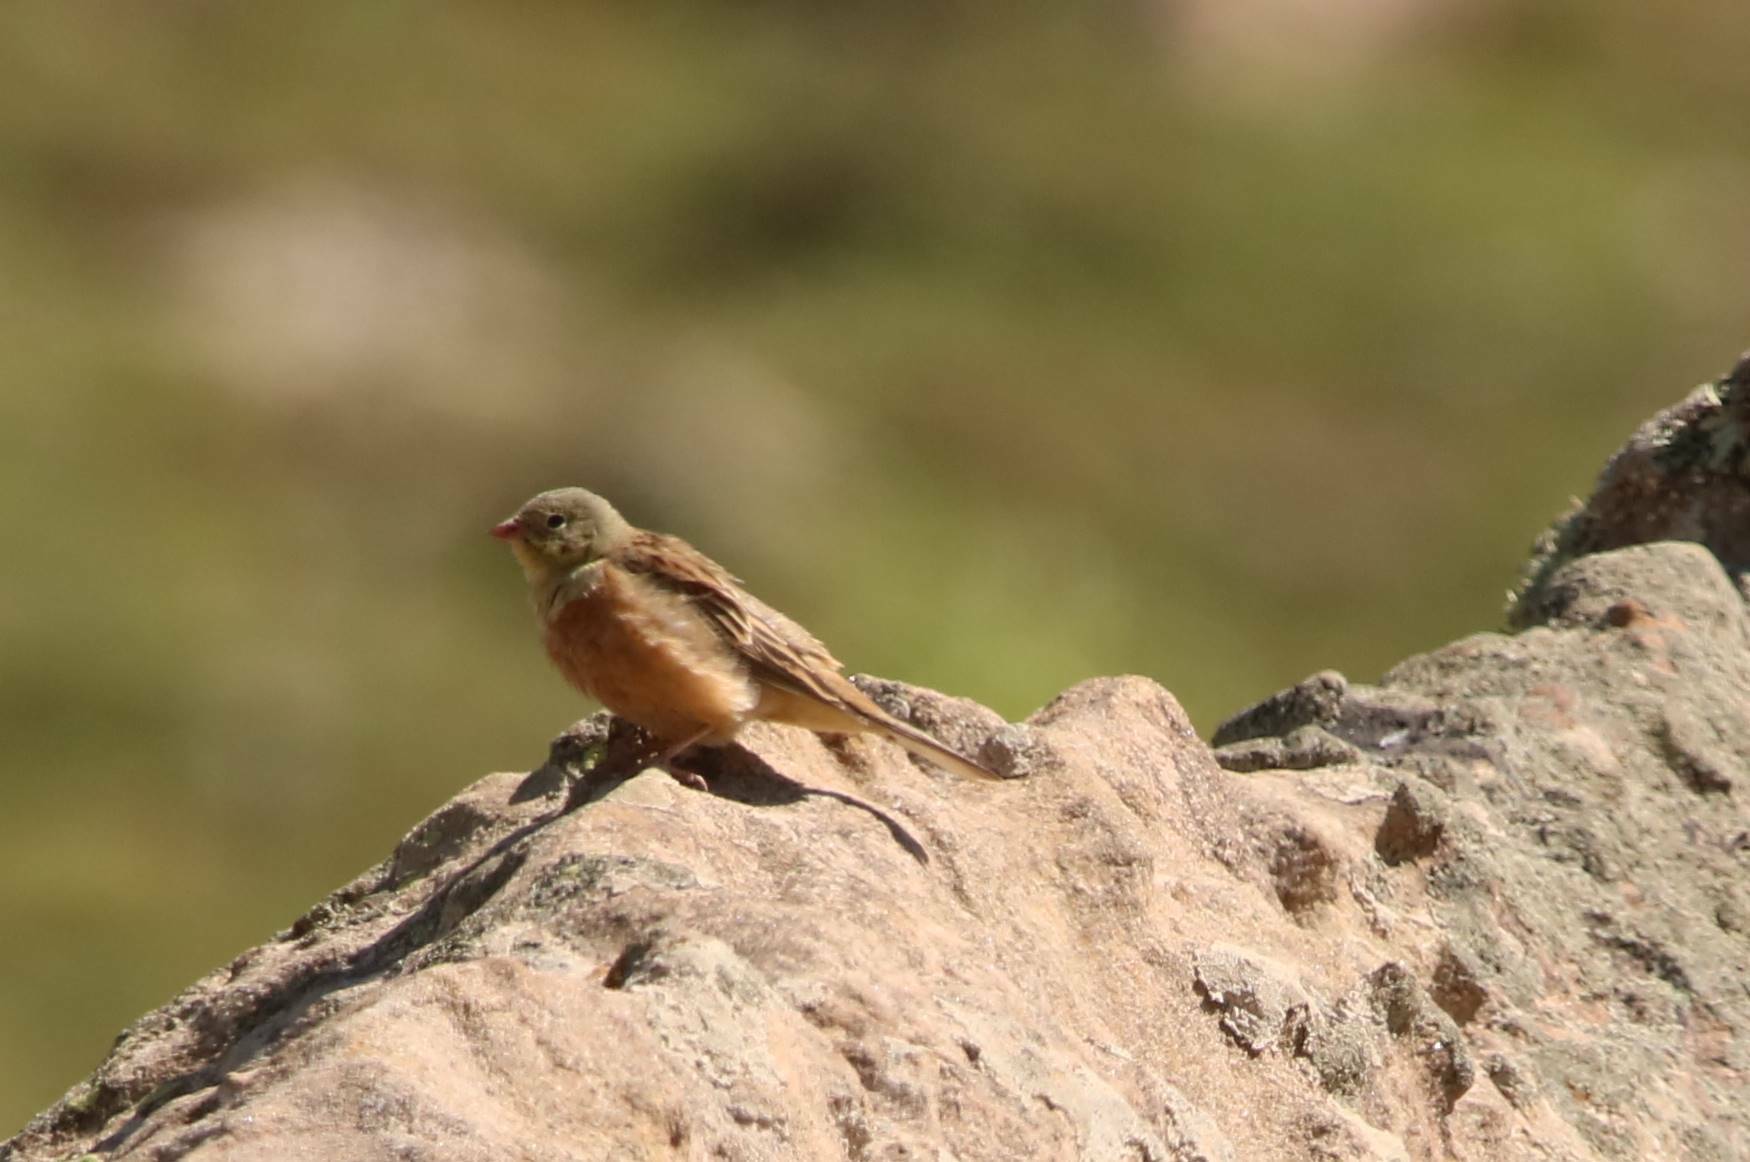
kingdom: Animalia
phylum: Chordata
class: Aves
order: Passeriformes
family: Emberizidae
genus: Emberiza
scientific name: Emberiza hortulana
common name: Ortolan bunting
